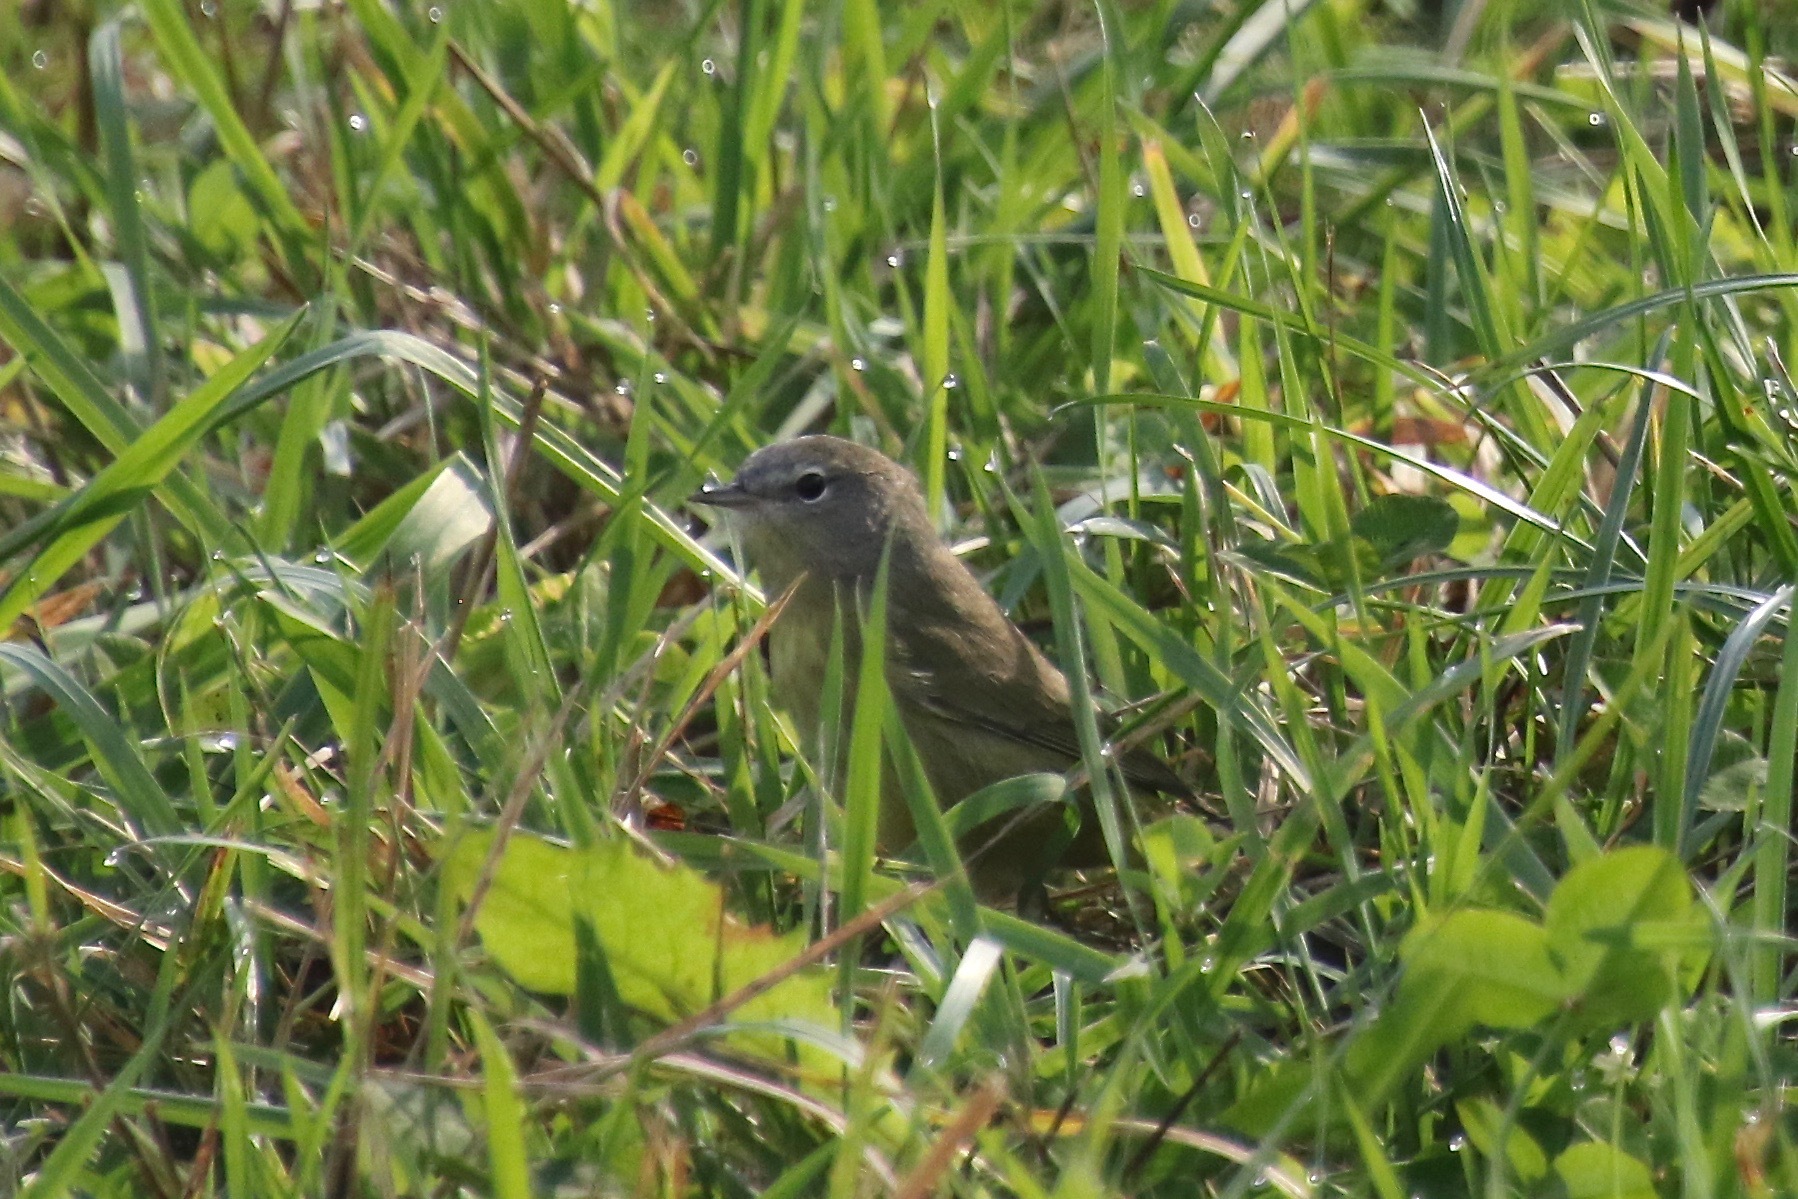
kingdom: Animalia
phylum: Chordata
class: Aves
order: Passeriformes
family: Parulidae
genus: Leiothlypis
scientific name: Leiothlypis celata
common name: Orange-crowned warbler
